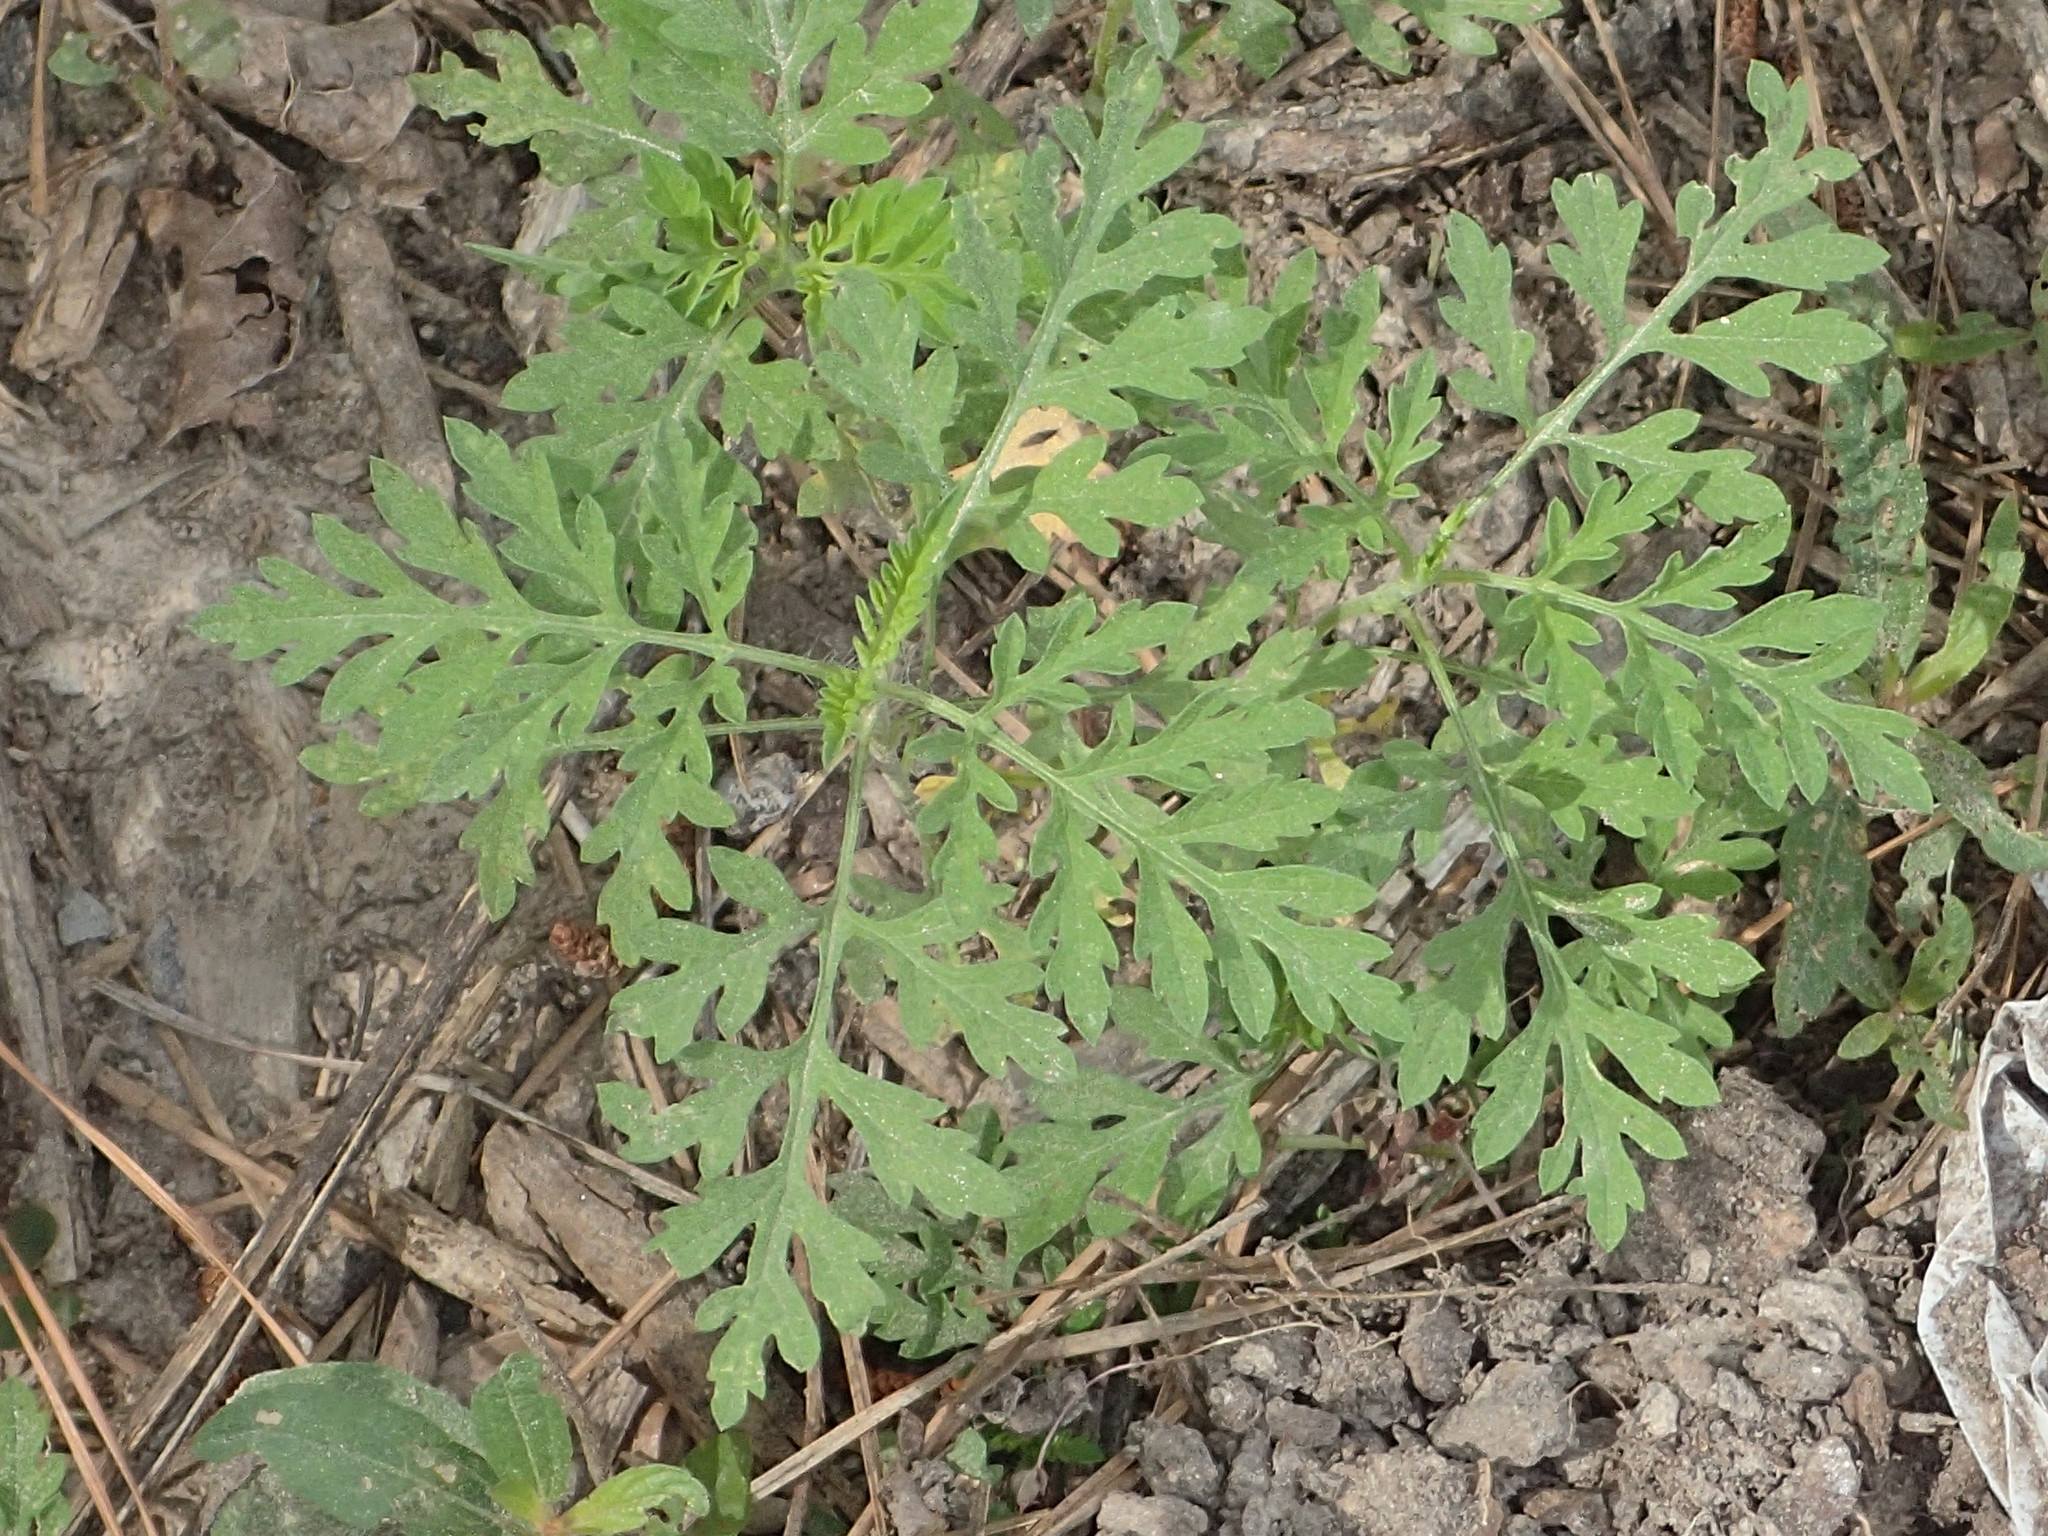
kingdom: Plantae
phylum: Tracheophyta
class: Magnoliopsida
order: Asterales
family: Asteraceae
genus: Ambrosia
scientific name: Ambrosia artemisiifolia
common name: Annual ragweed
